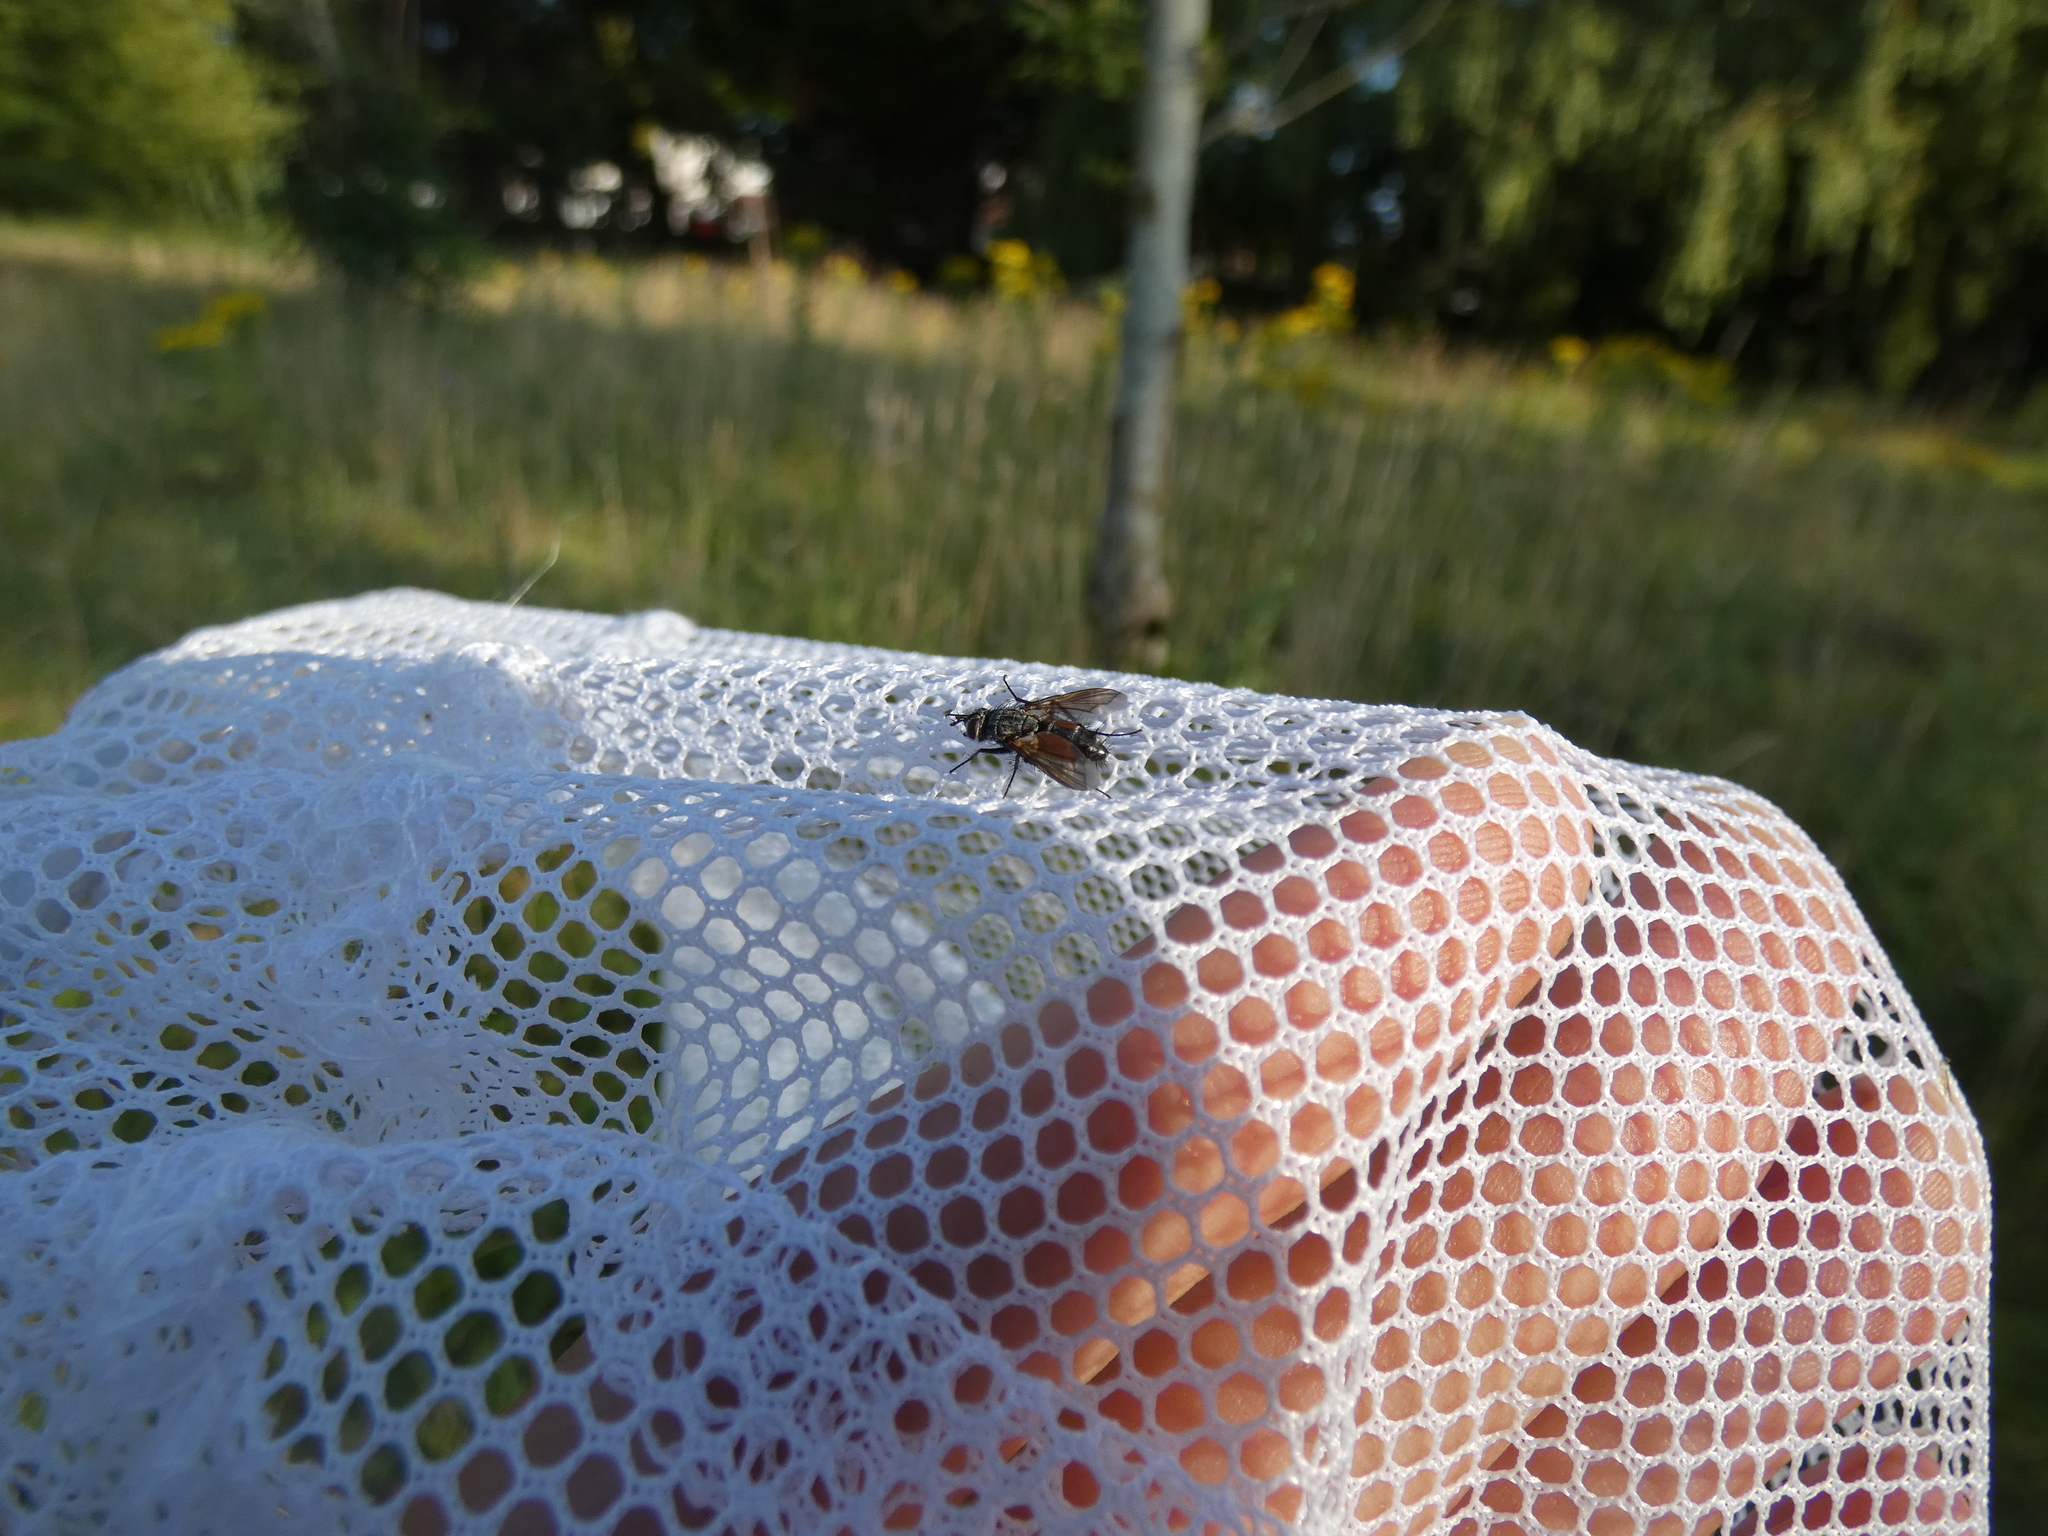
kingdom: Animalia
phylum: Arthropoda
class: Insecta
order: Diptera
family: Tachinidae
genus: Eriothrix
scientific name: Eriothrix rufomaculatus
